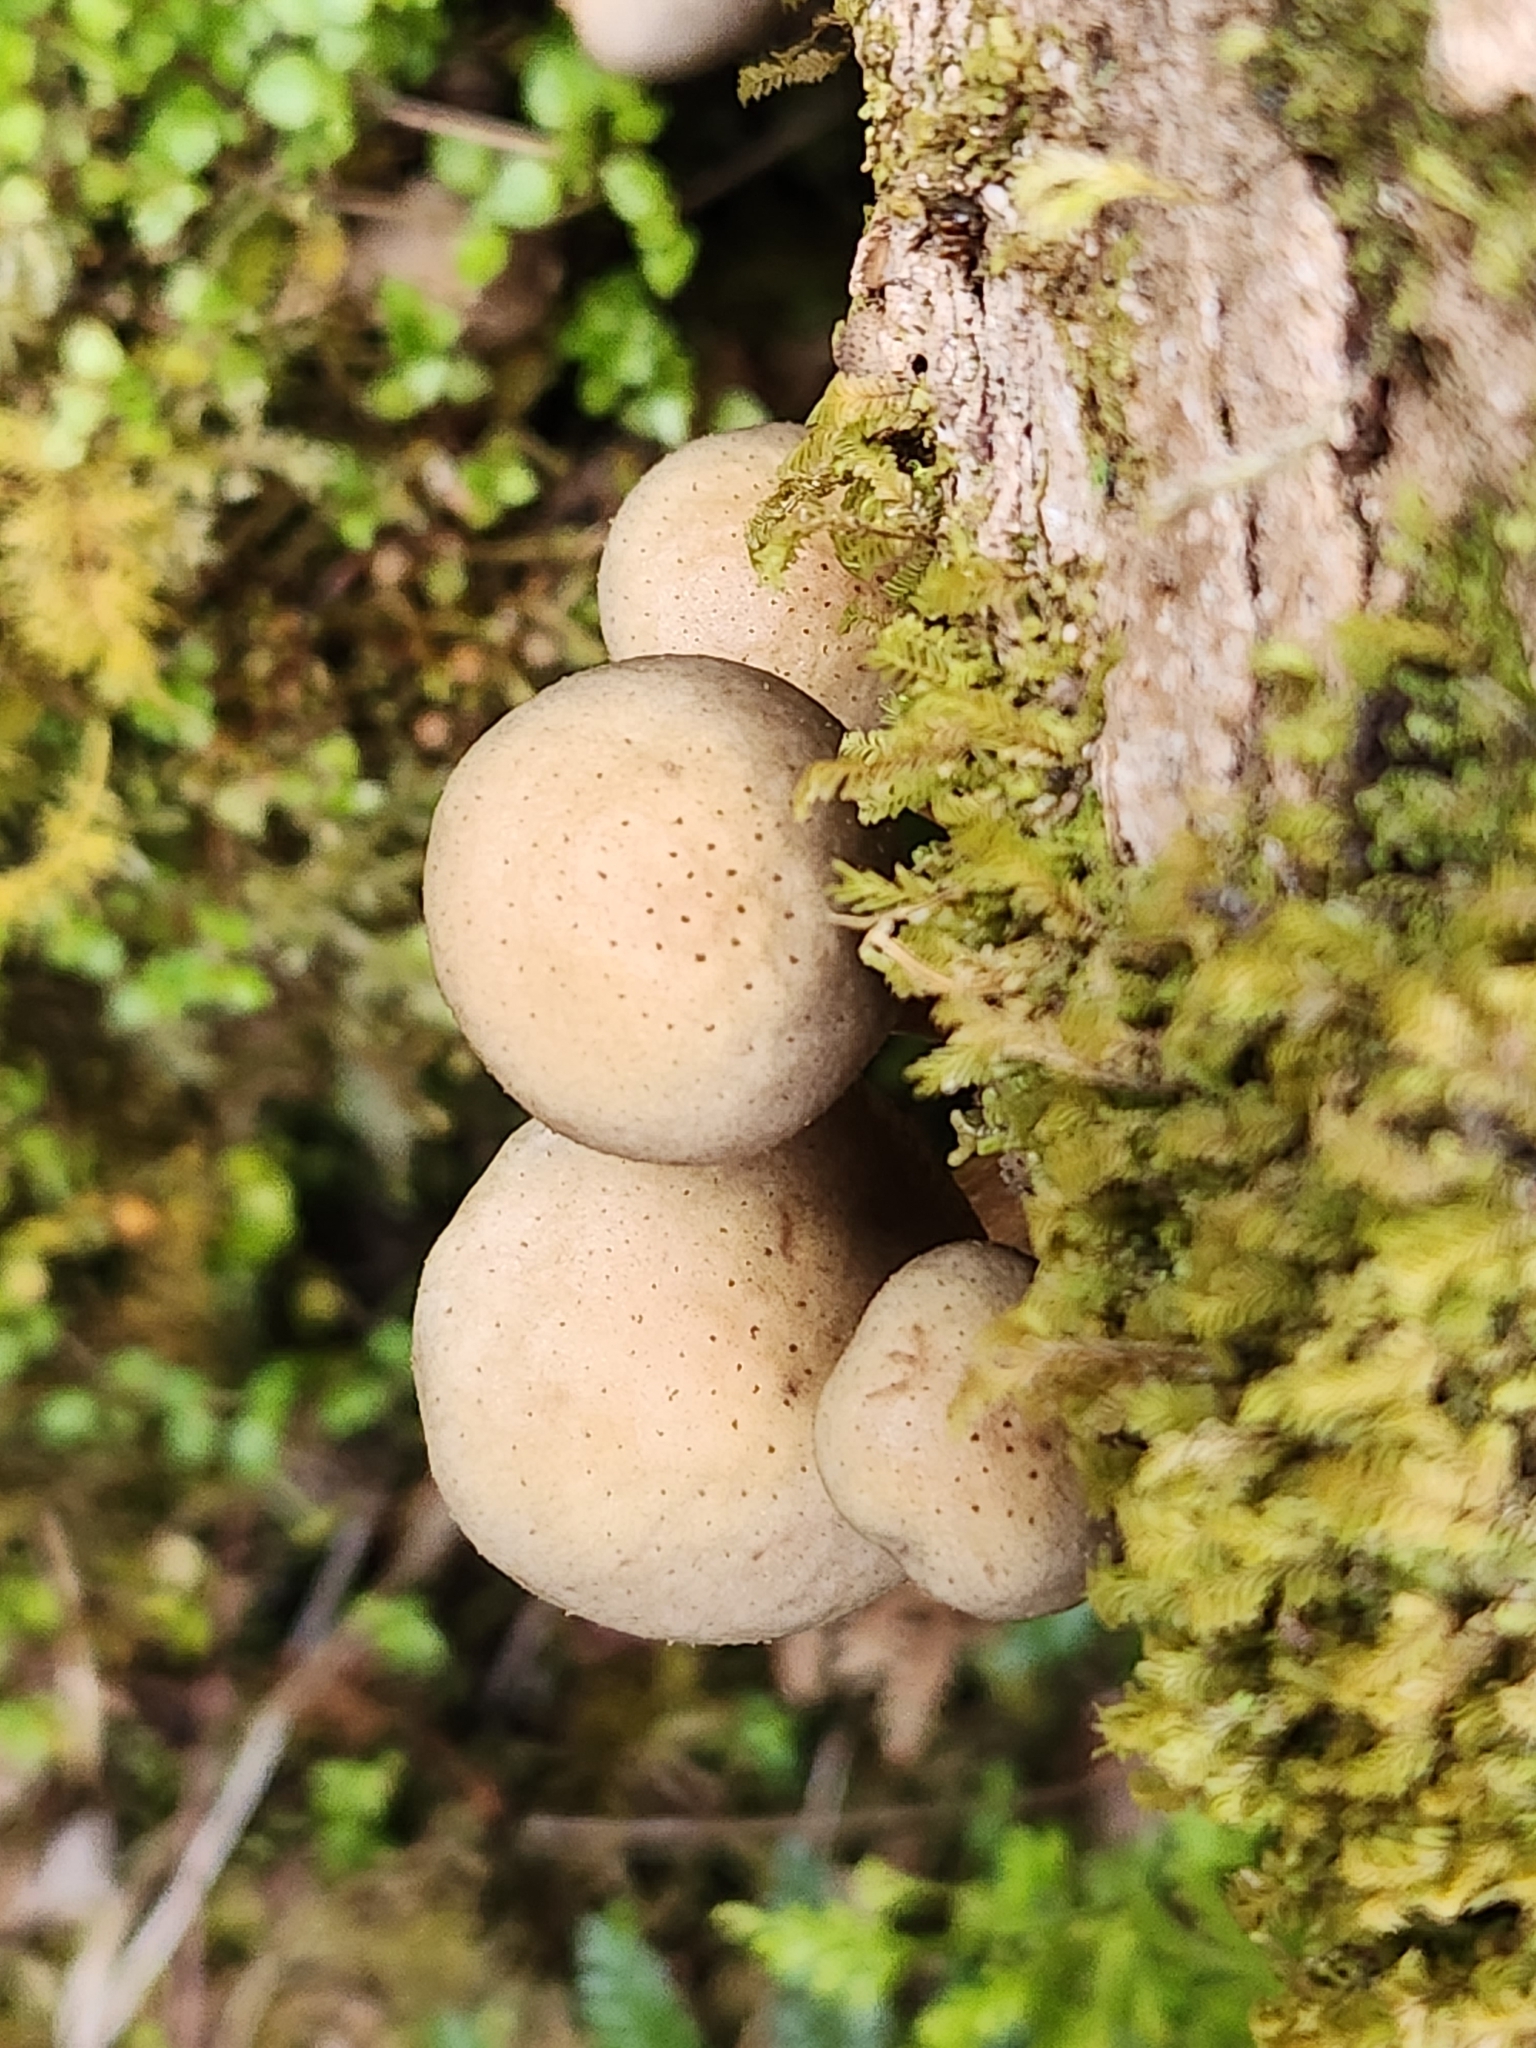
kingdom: Fungi
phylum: Basidiomycota
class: Agaricomycetes
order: Agaricales
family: Physalacriaceae
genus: Armillaria
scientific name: Armillaria novae-zelandiae
